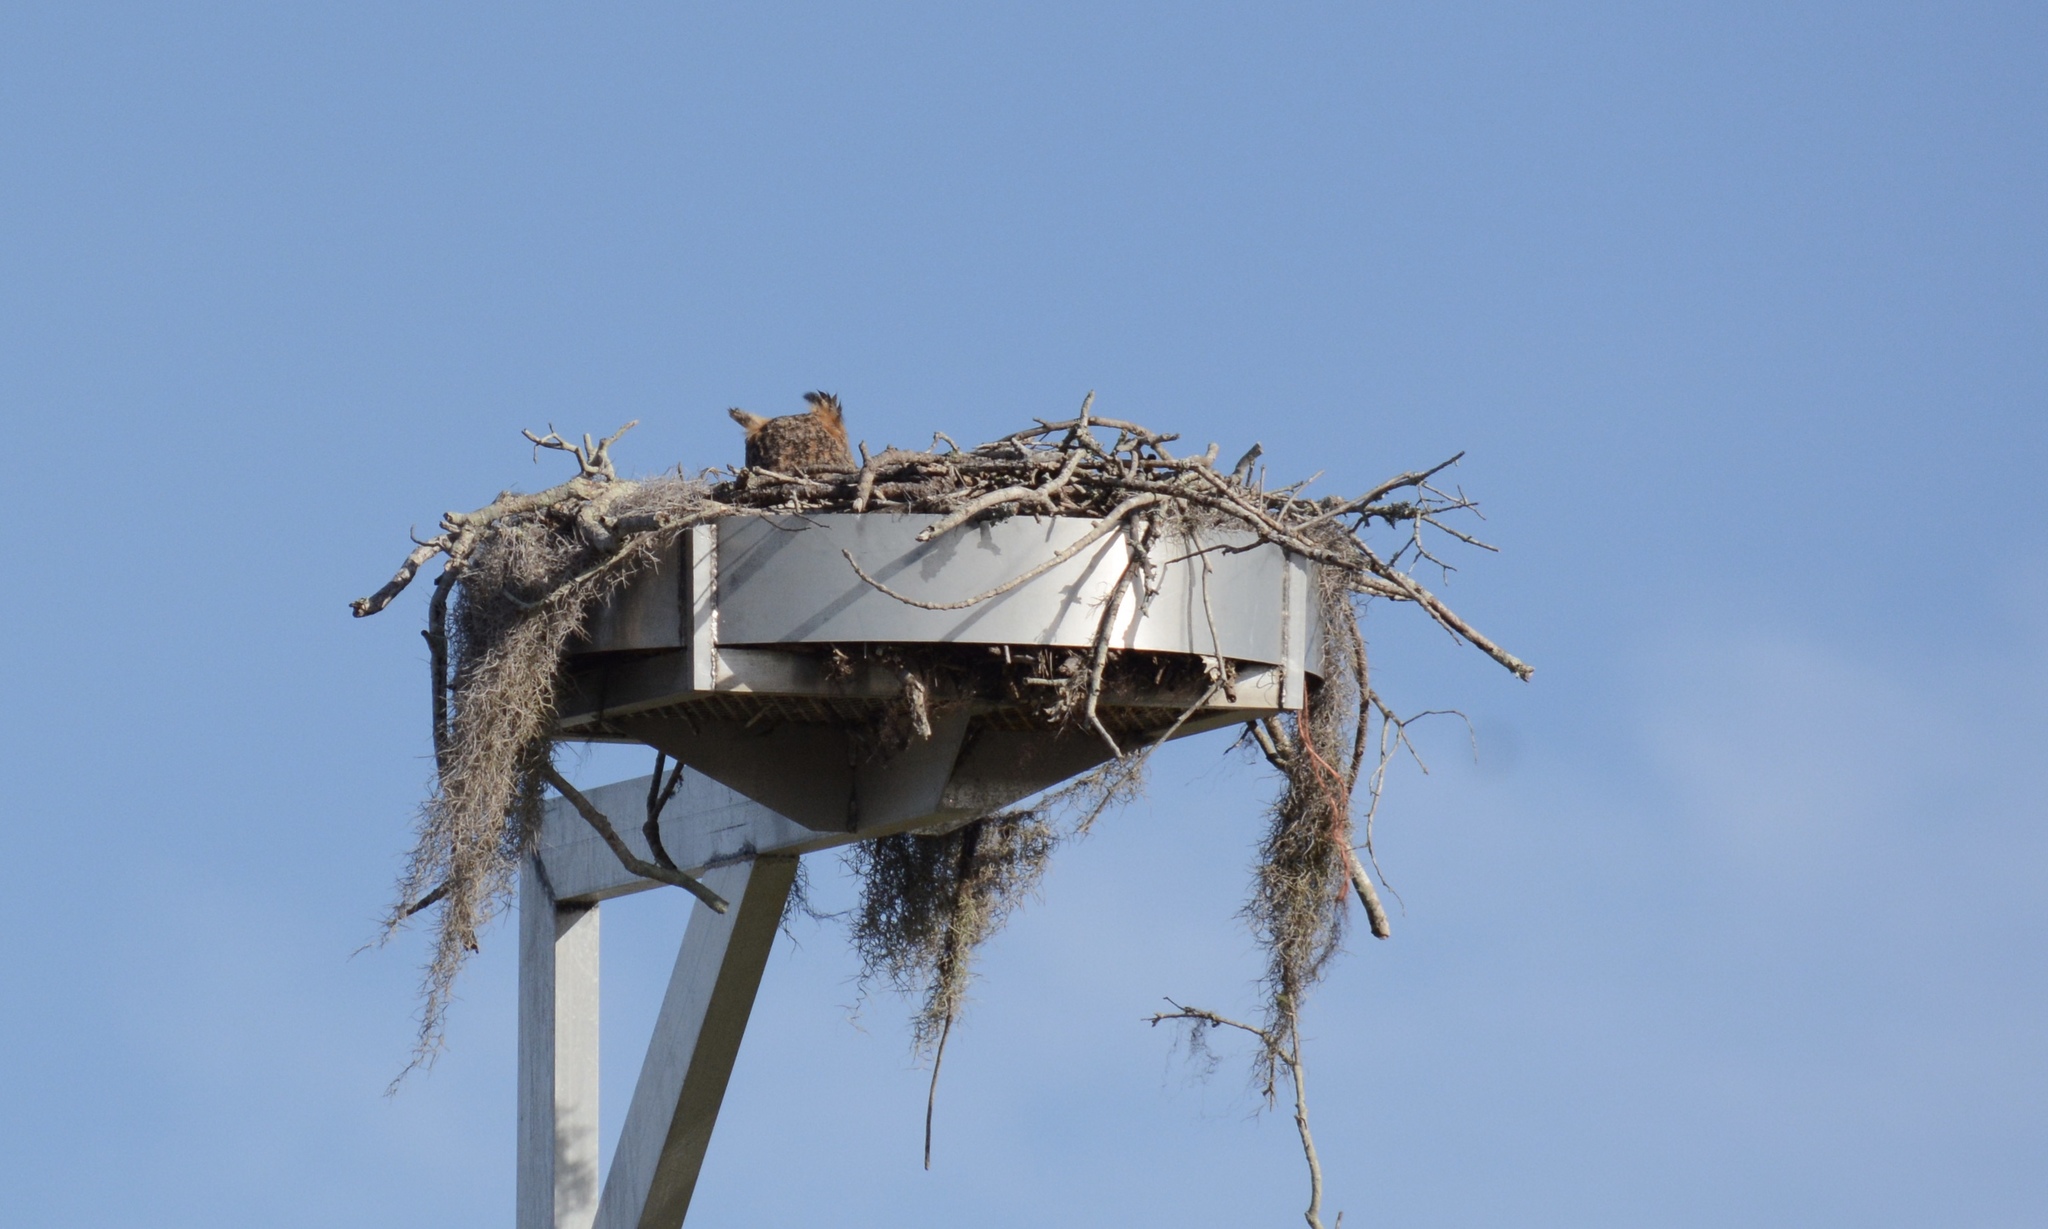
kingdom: Animalia
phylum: Chordata
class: Aves
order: Strigiformes
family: Strigidae
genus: Bubo
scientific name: Bubo virginianus
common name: Great horned owl
